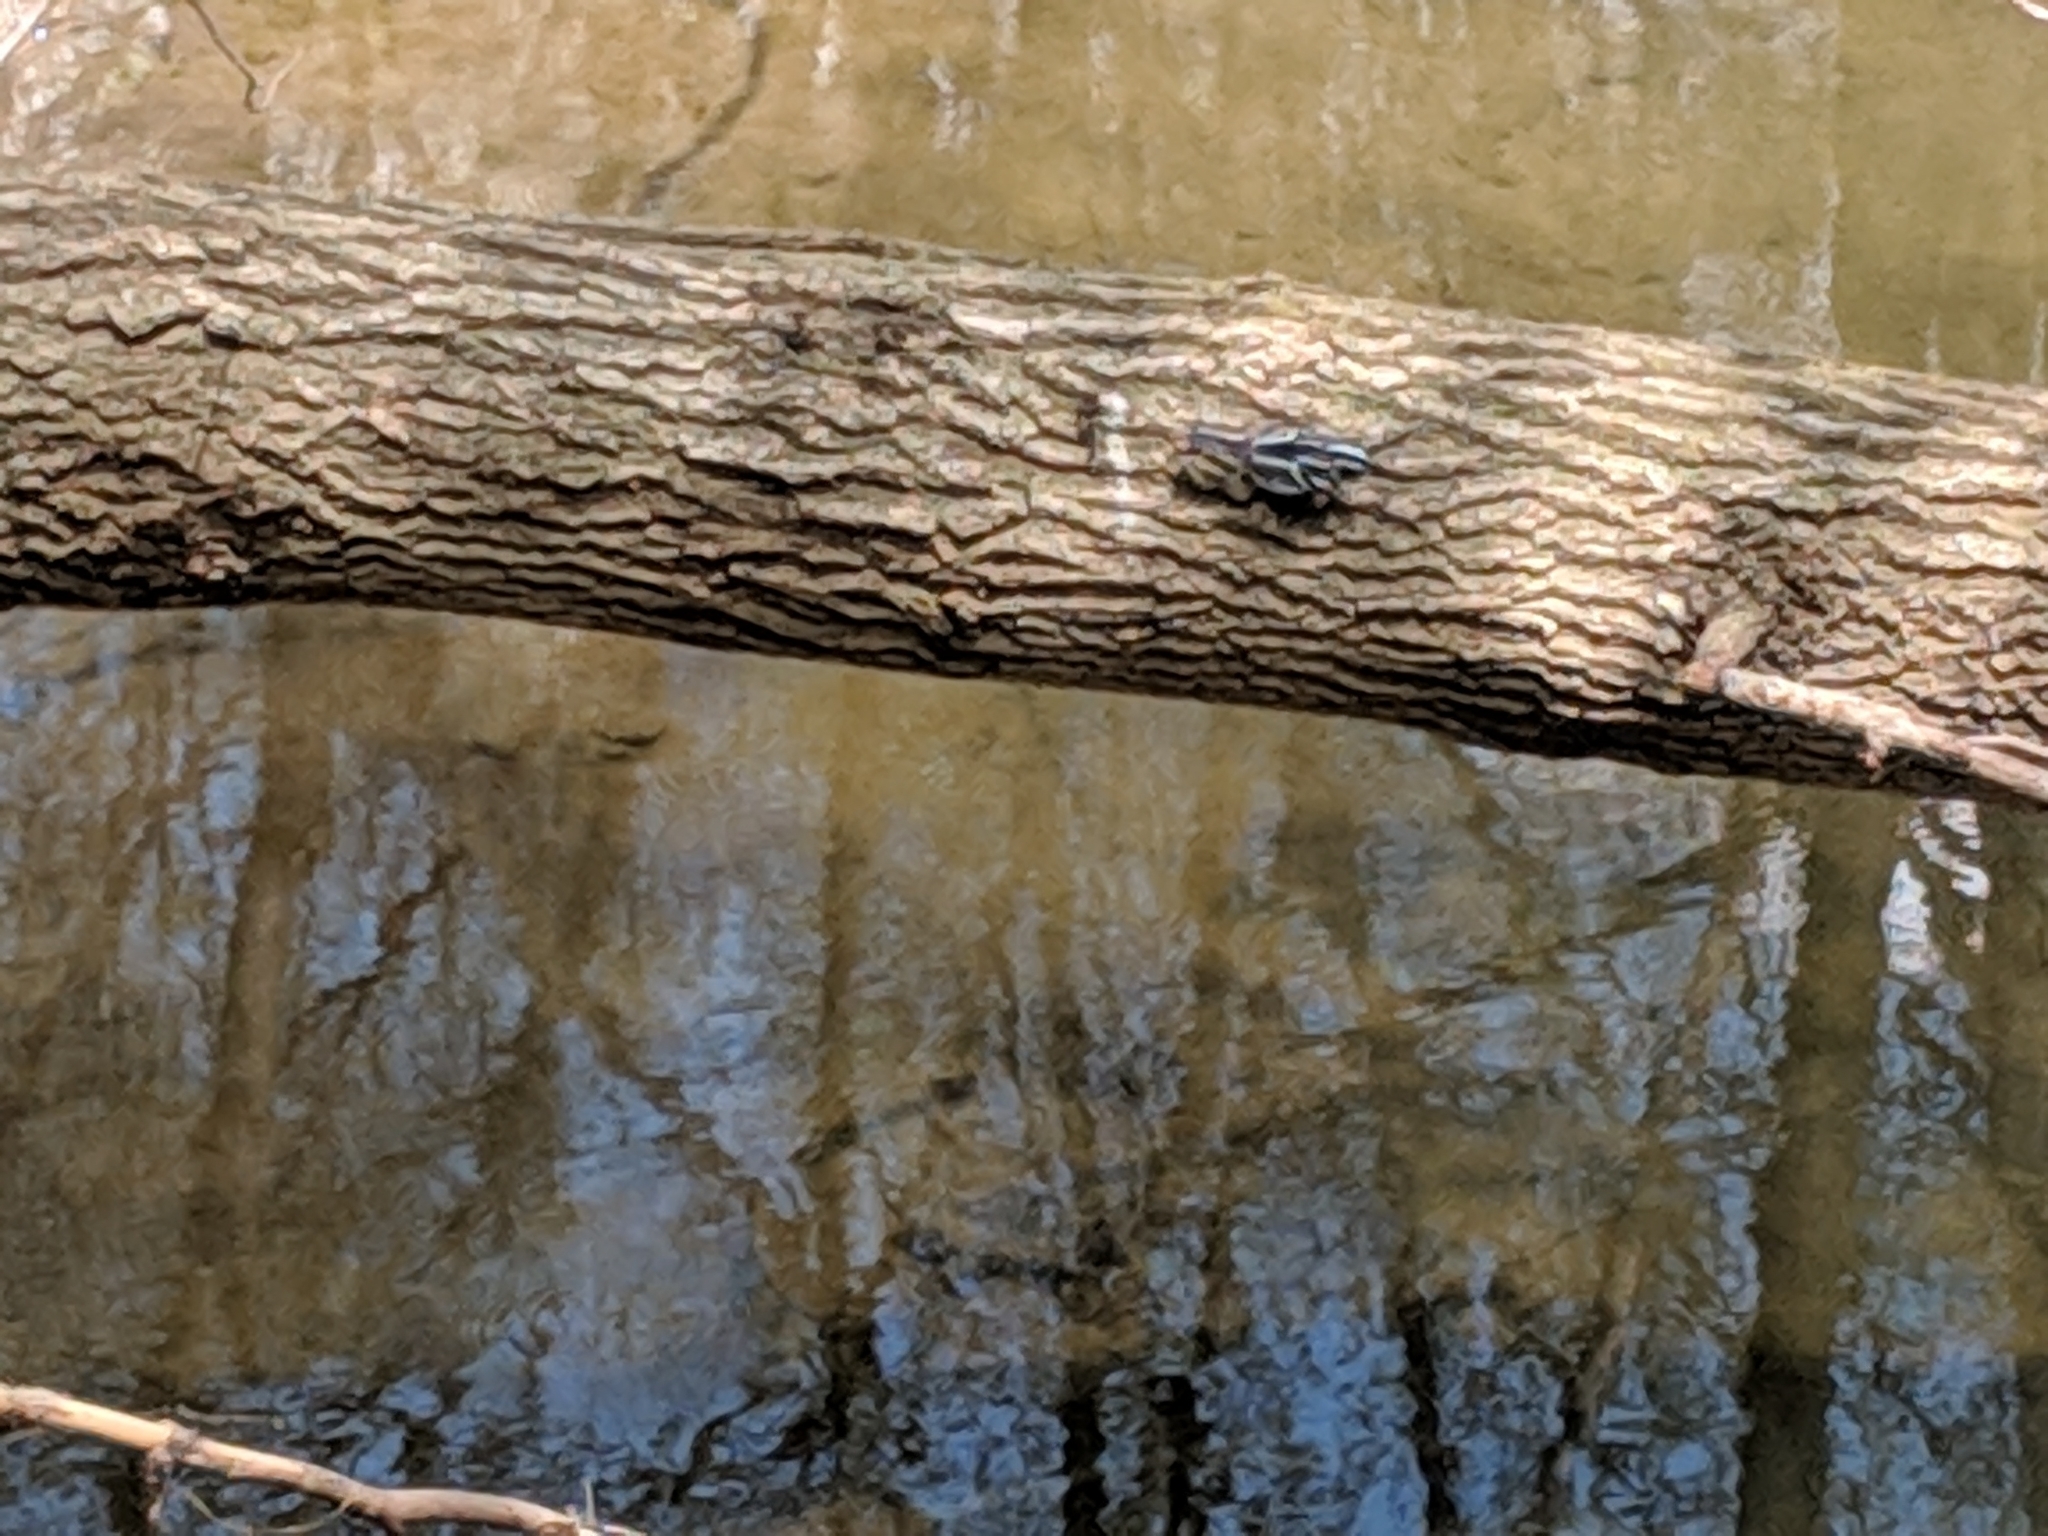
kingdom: Animalia
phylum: Chordata
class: Aves
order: Passeriformes
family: Parulidae
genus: Mniotilta
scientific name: Mniotilta varia
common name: Black-and-white warbler
